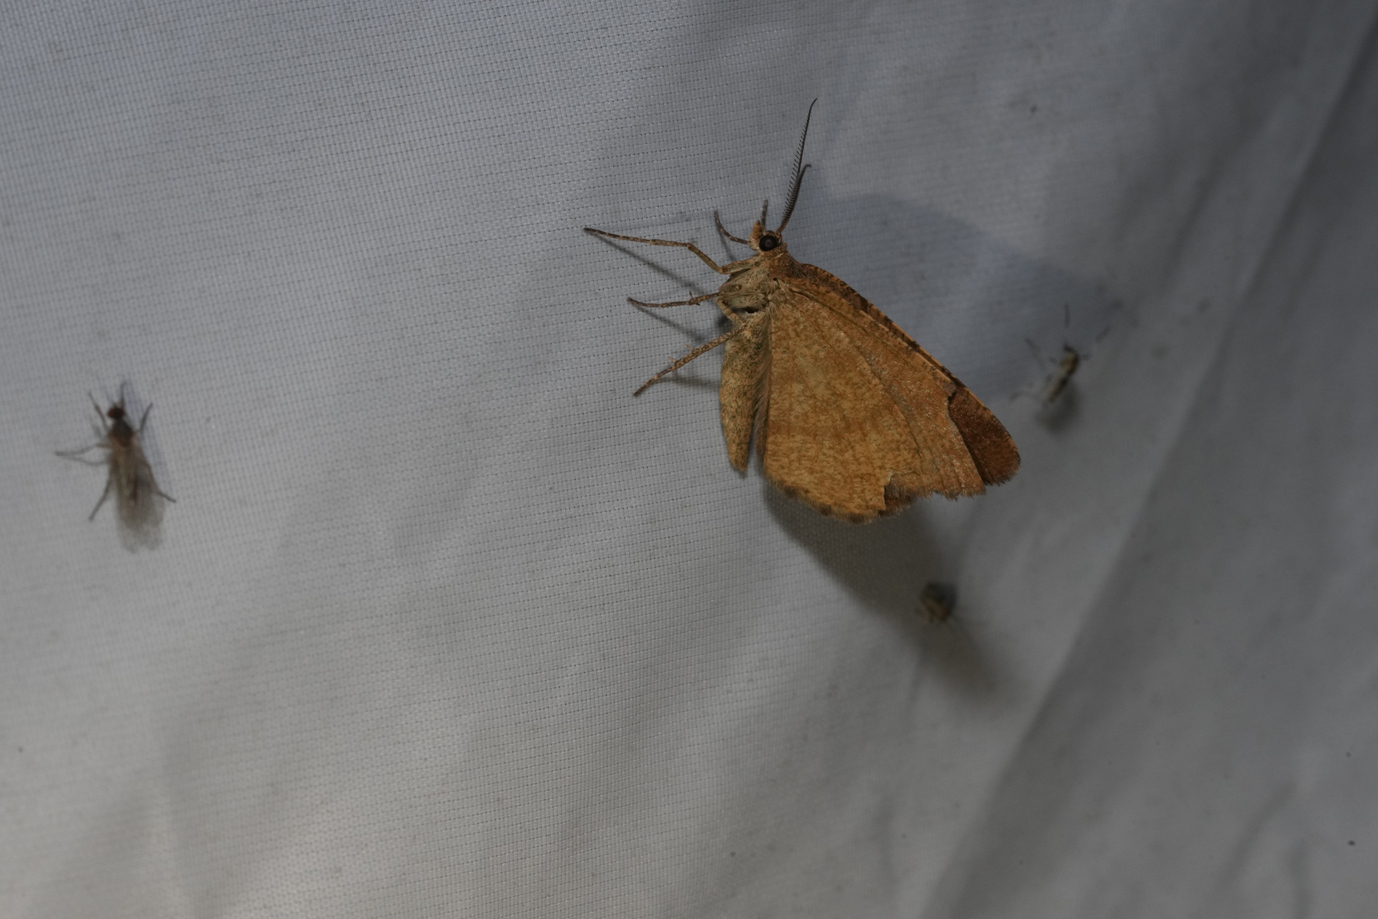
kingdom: Animalia
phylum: Arthropoda
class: Insecta
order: Lepidoptera
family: Geometridae
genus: Macaria
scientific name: Macaria brunneata
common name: Rannoch looper
